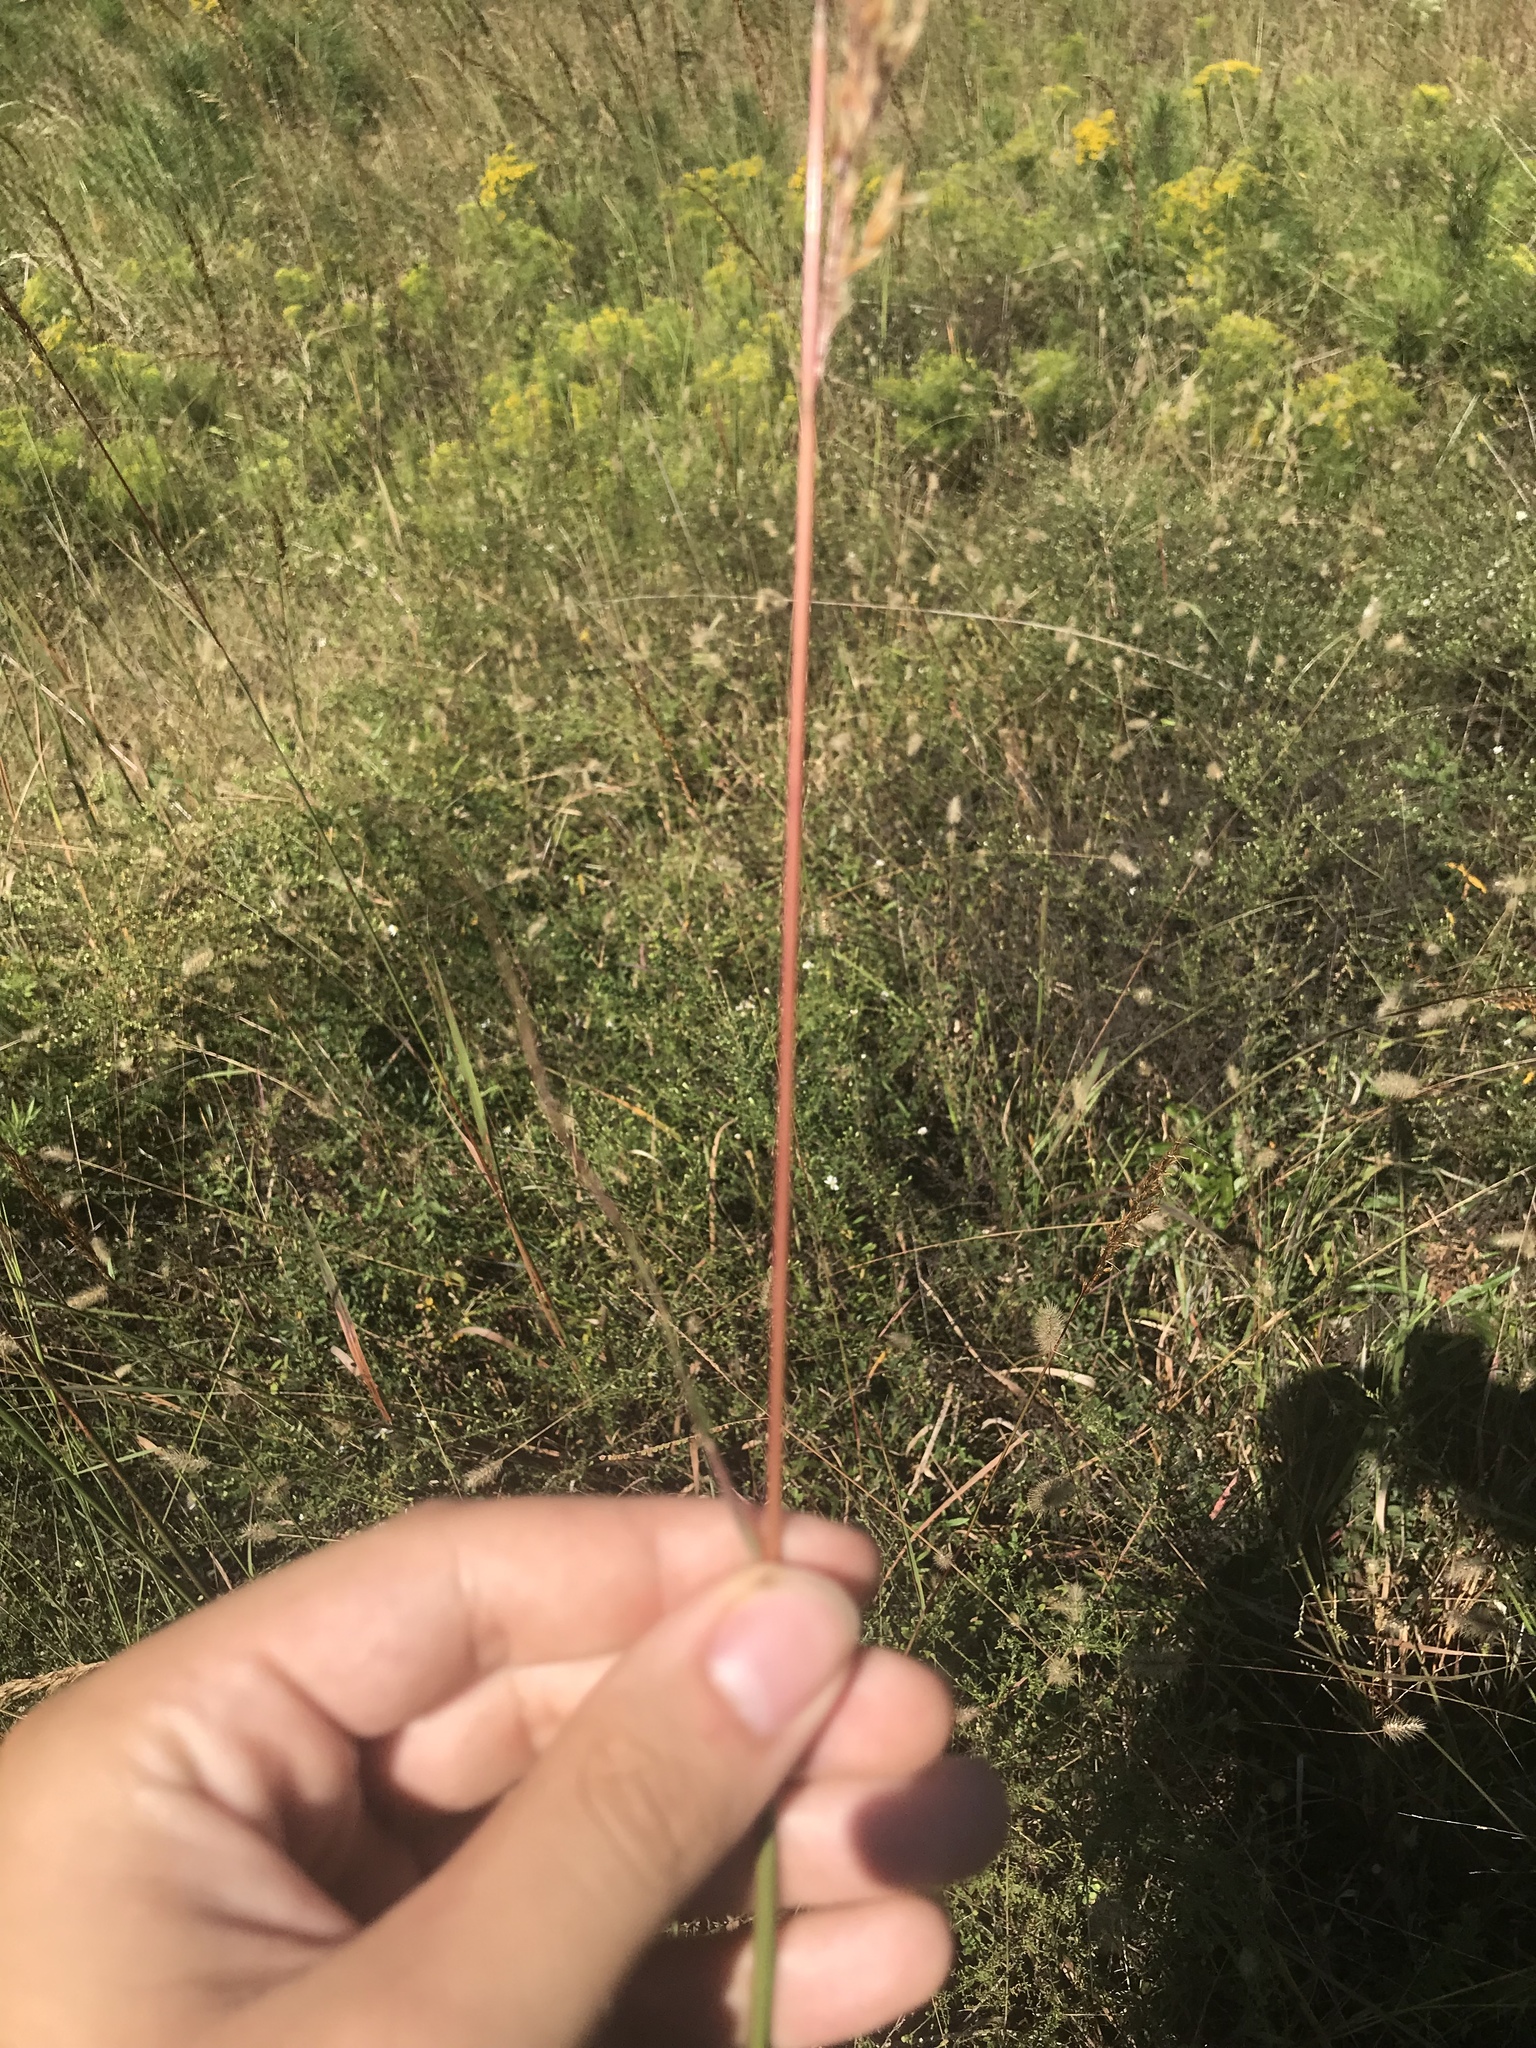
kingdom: Plantae
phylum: Tracheophyta
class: Liliopsida
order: Poales
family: Poaceae
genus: Sorghastrum
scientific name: Sorghastrum nutans
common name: Indian grass
